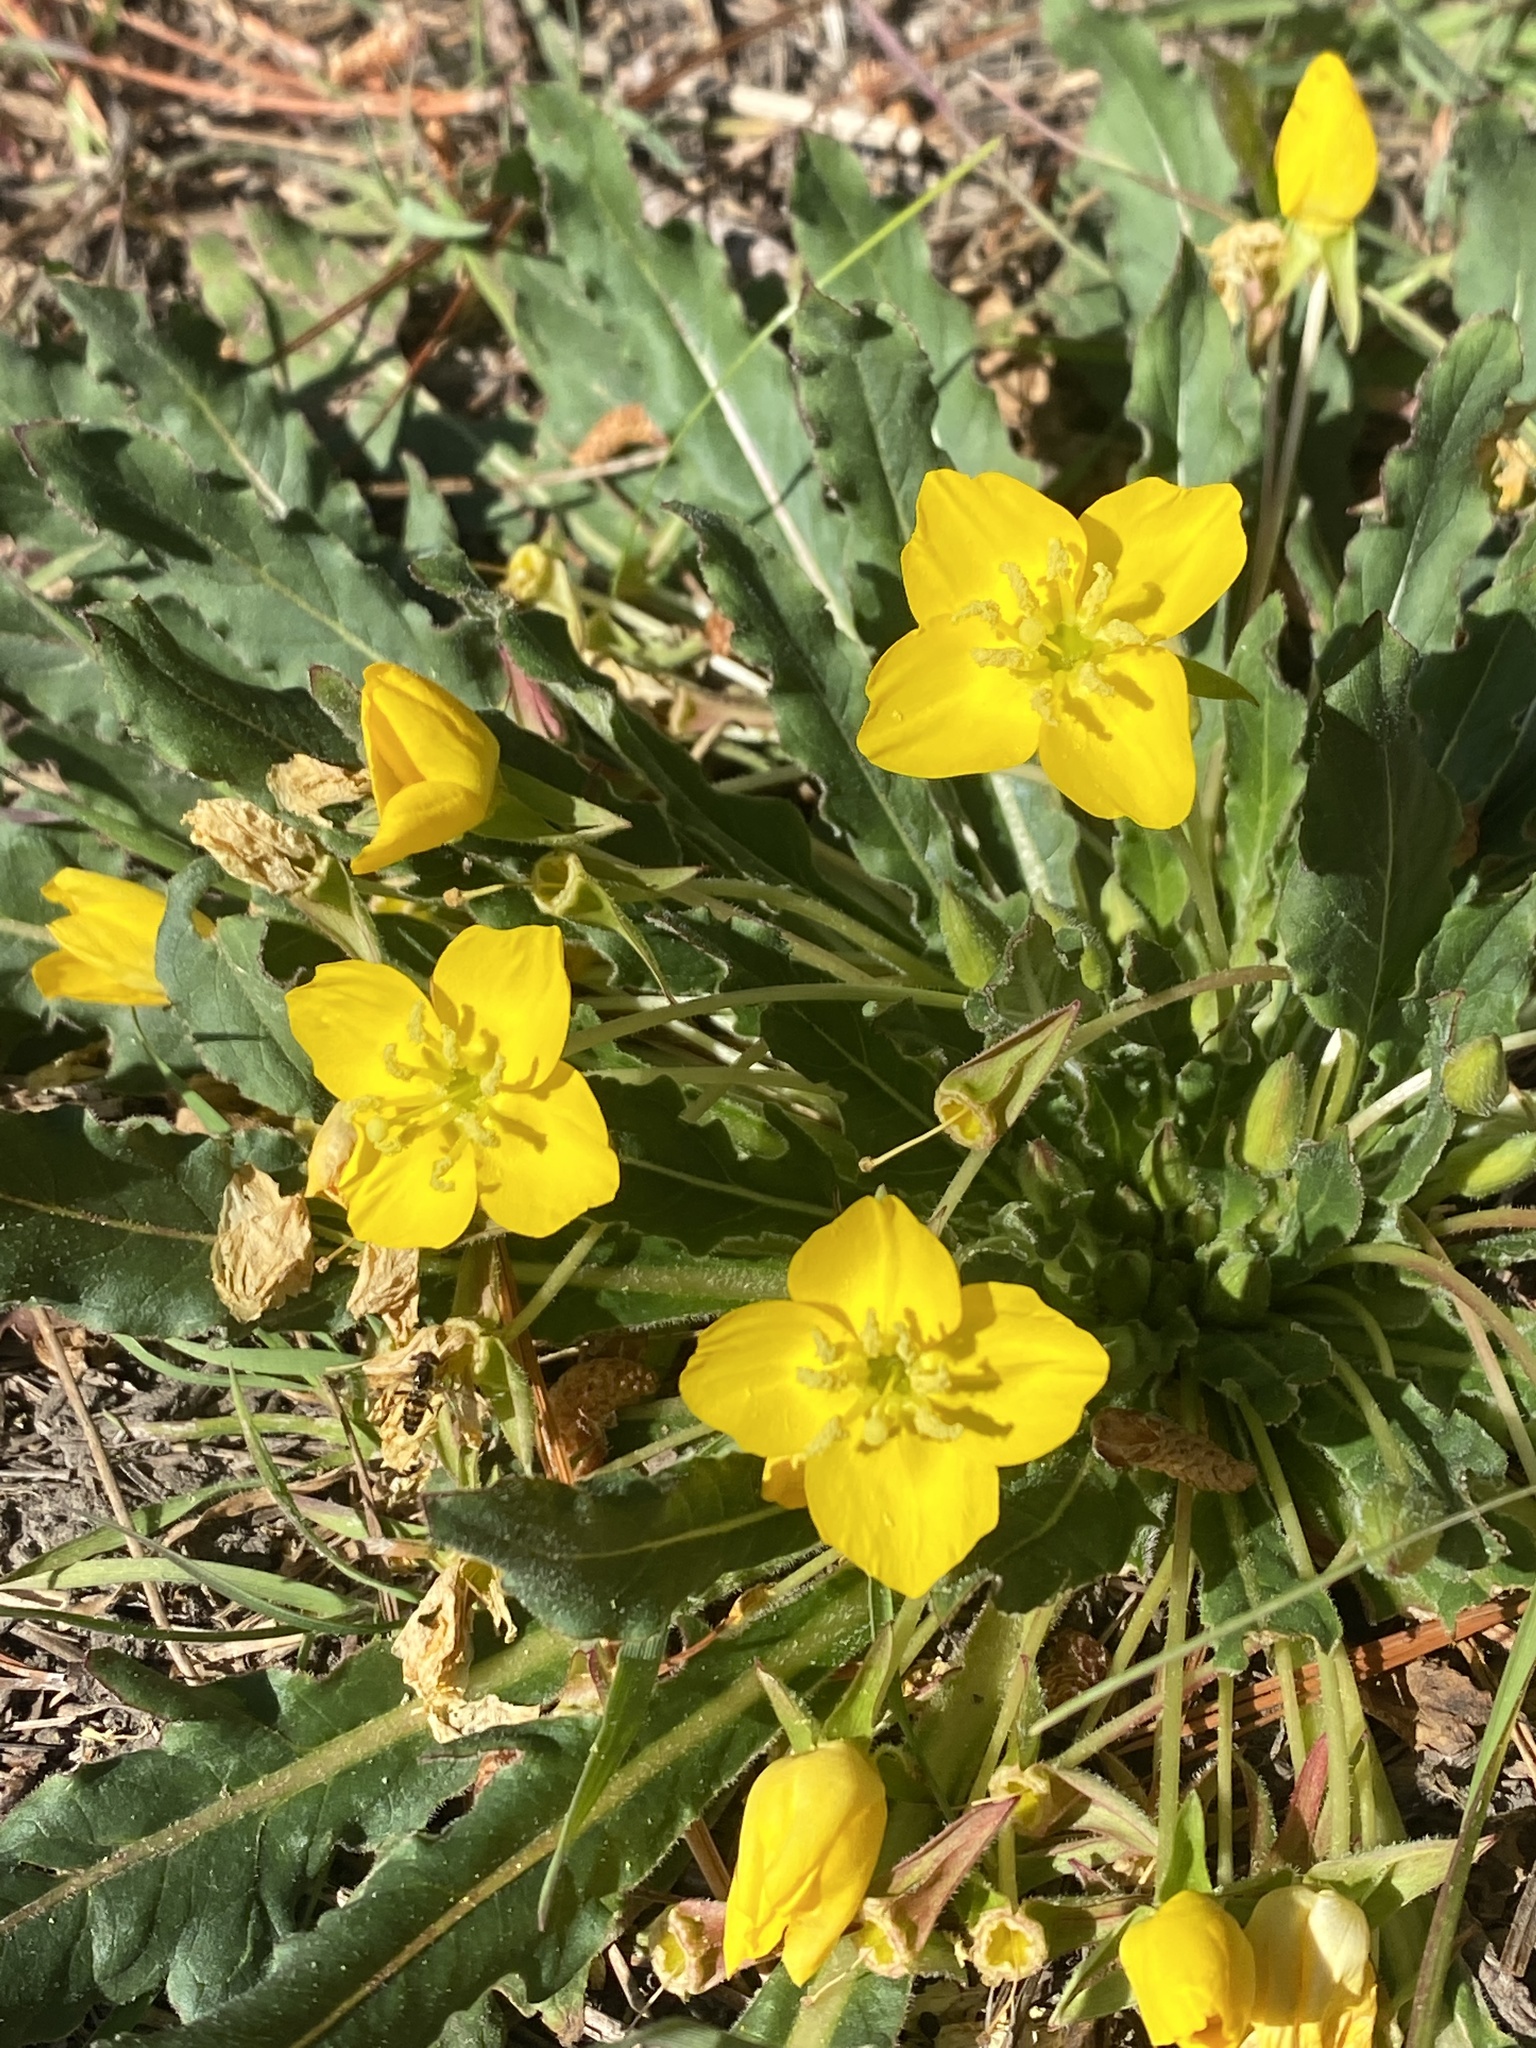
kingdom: Plantae
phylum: Tracheophyta
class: Magnoliopsida
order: Myrtales
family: Onagraceae
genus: Taraxia
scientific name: Taraxia ovata
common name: Goldeneggs
